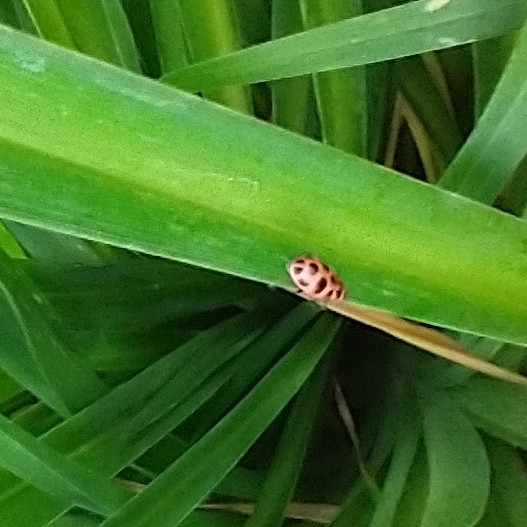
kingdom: Animalia
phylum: Arthropoda
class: Insecta
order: Coleoptera
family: Coccinellidae
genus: Coleomegilla
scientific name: Coleomegilla maculata
